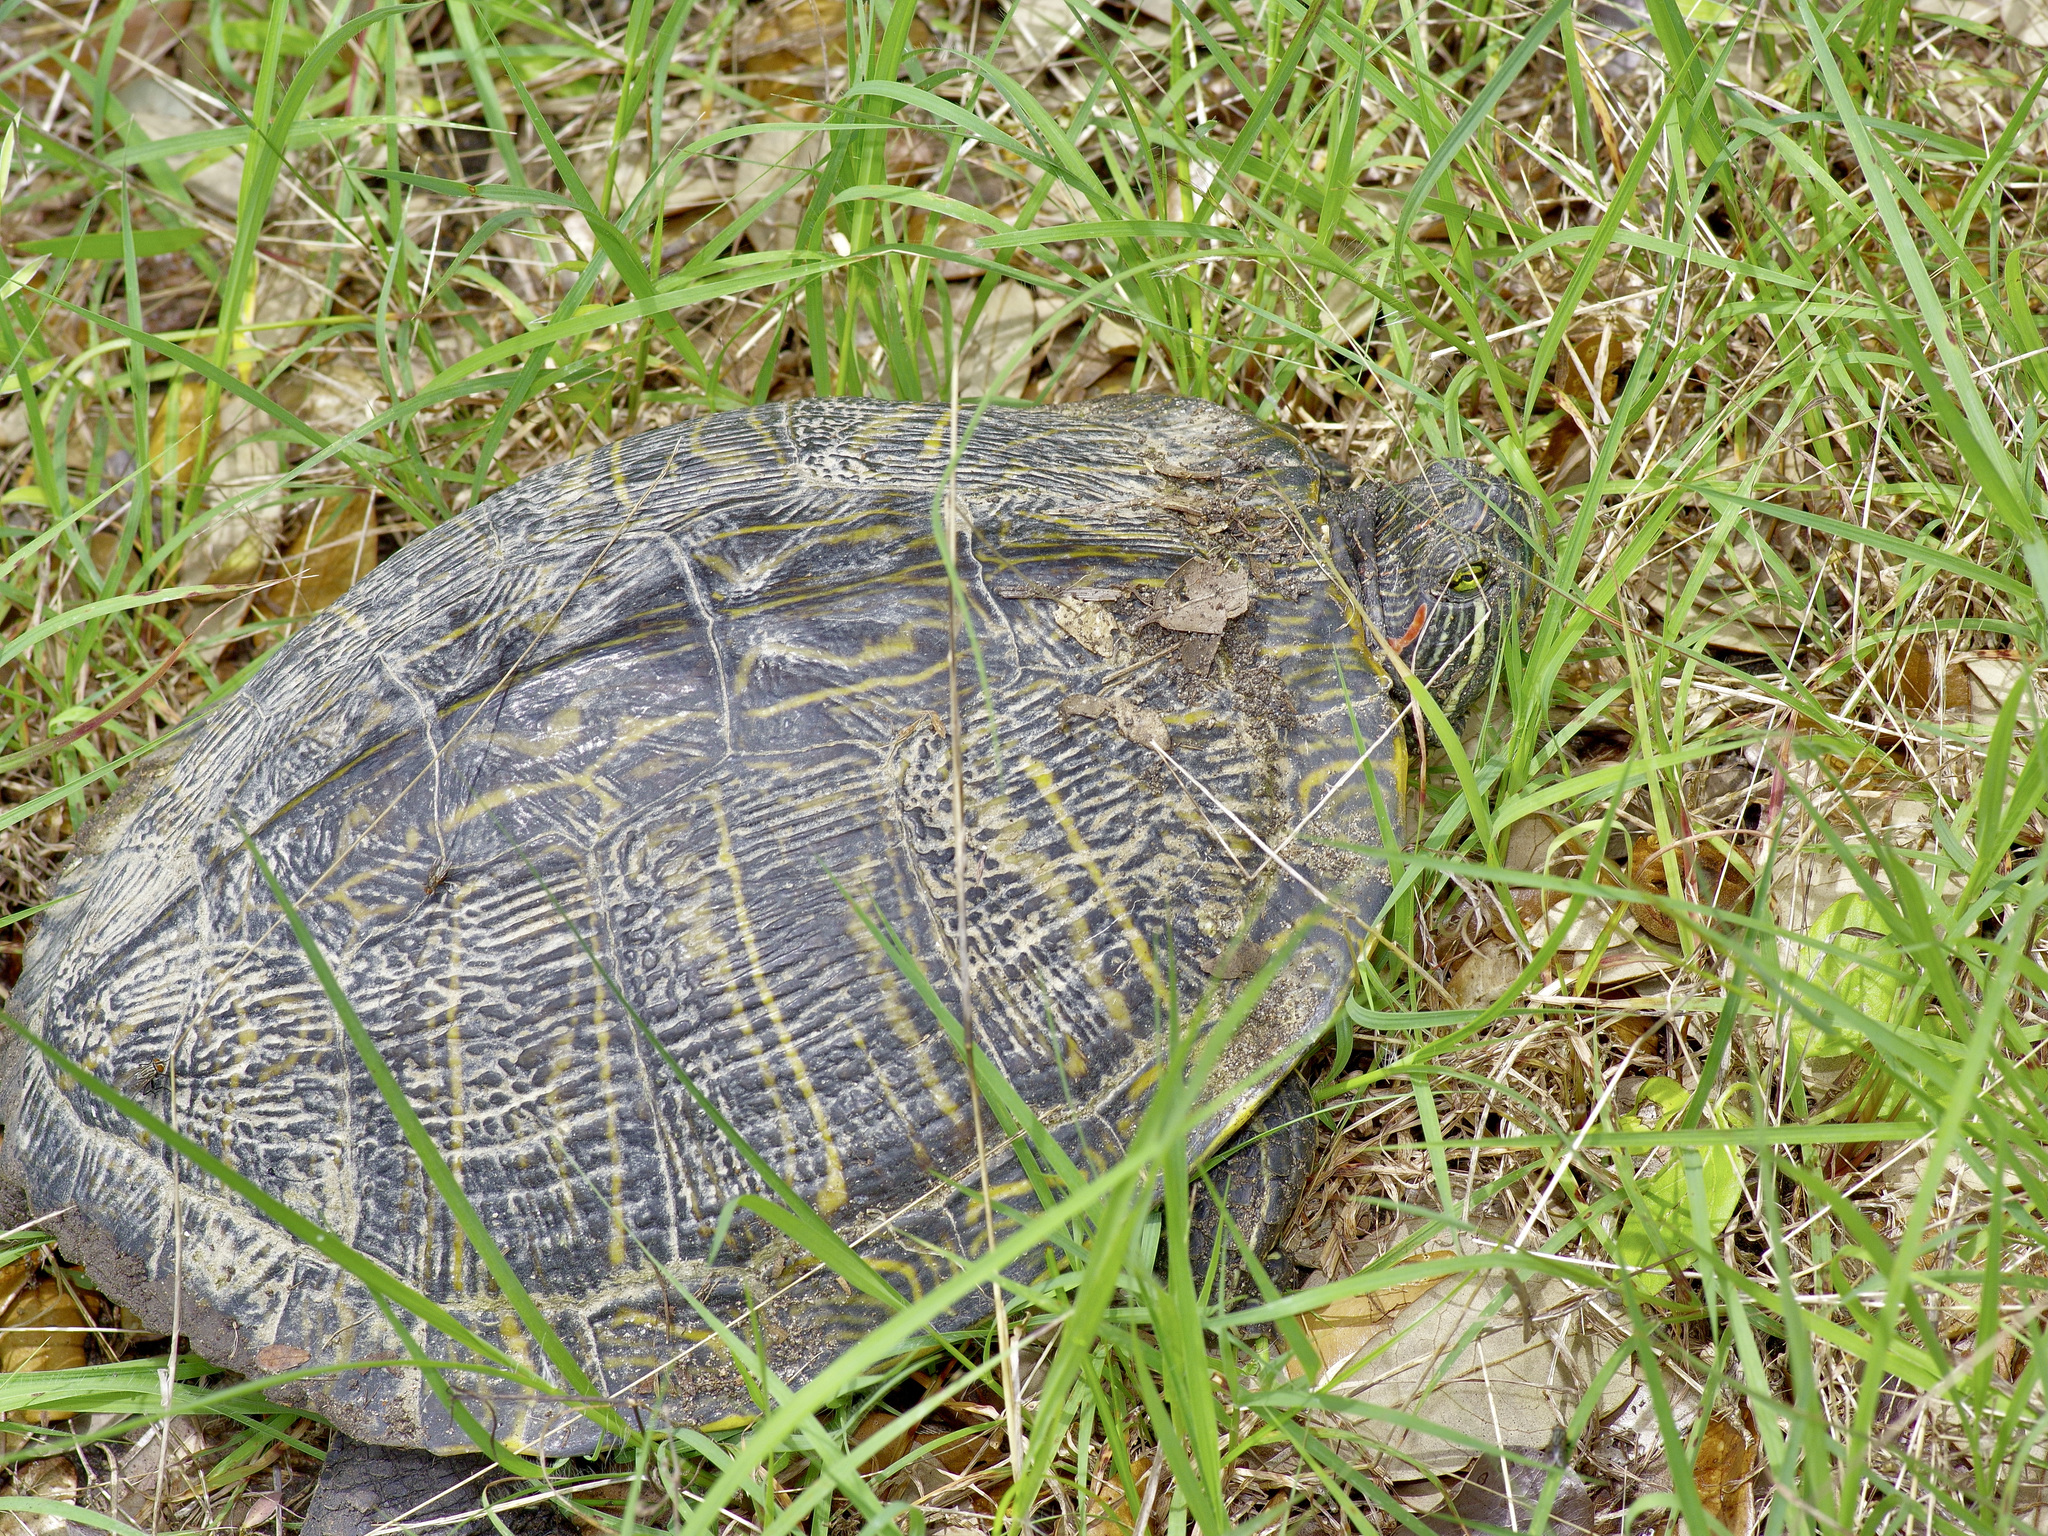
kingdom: Animalia
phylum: Chordata
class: Testudines
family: Emydidae
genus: Trachemys
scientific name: Trachemys scripta
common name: Slider
